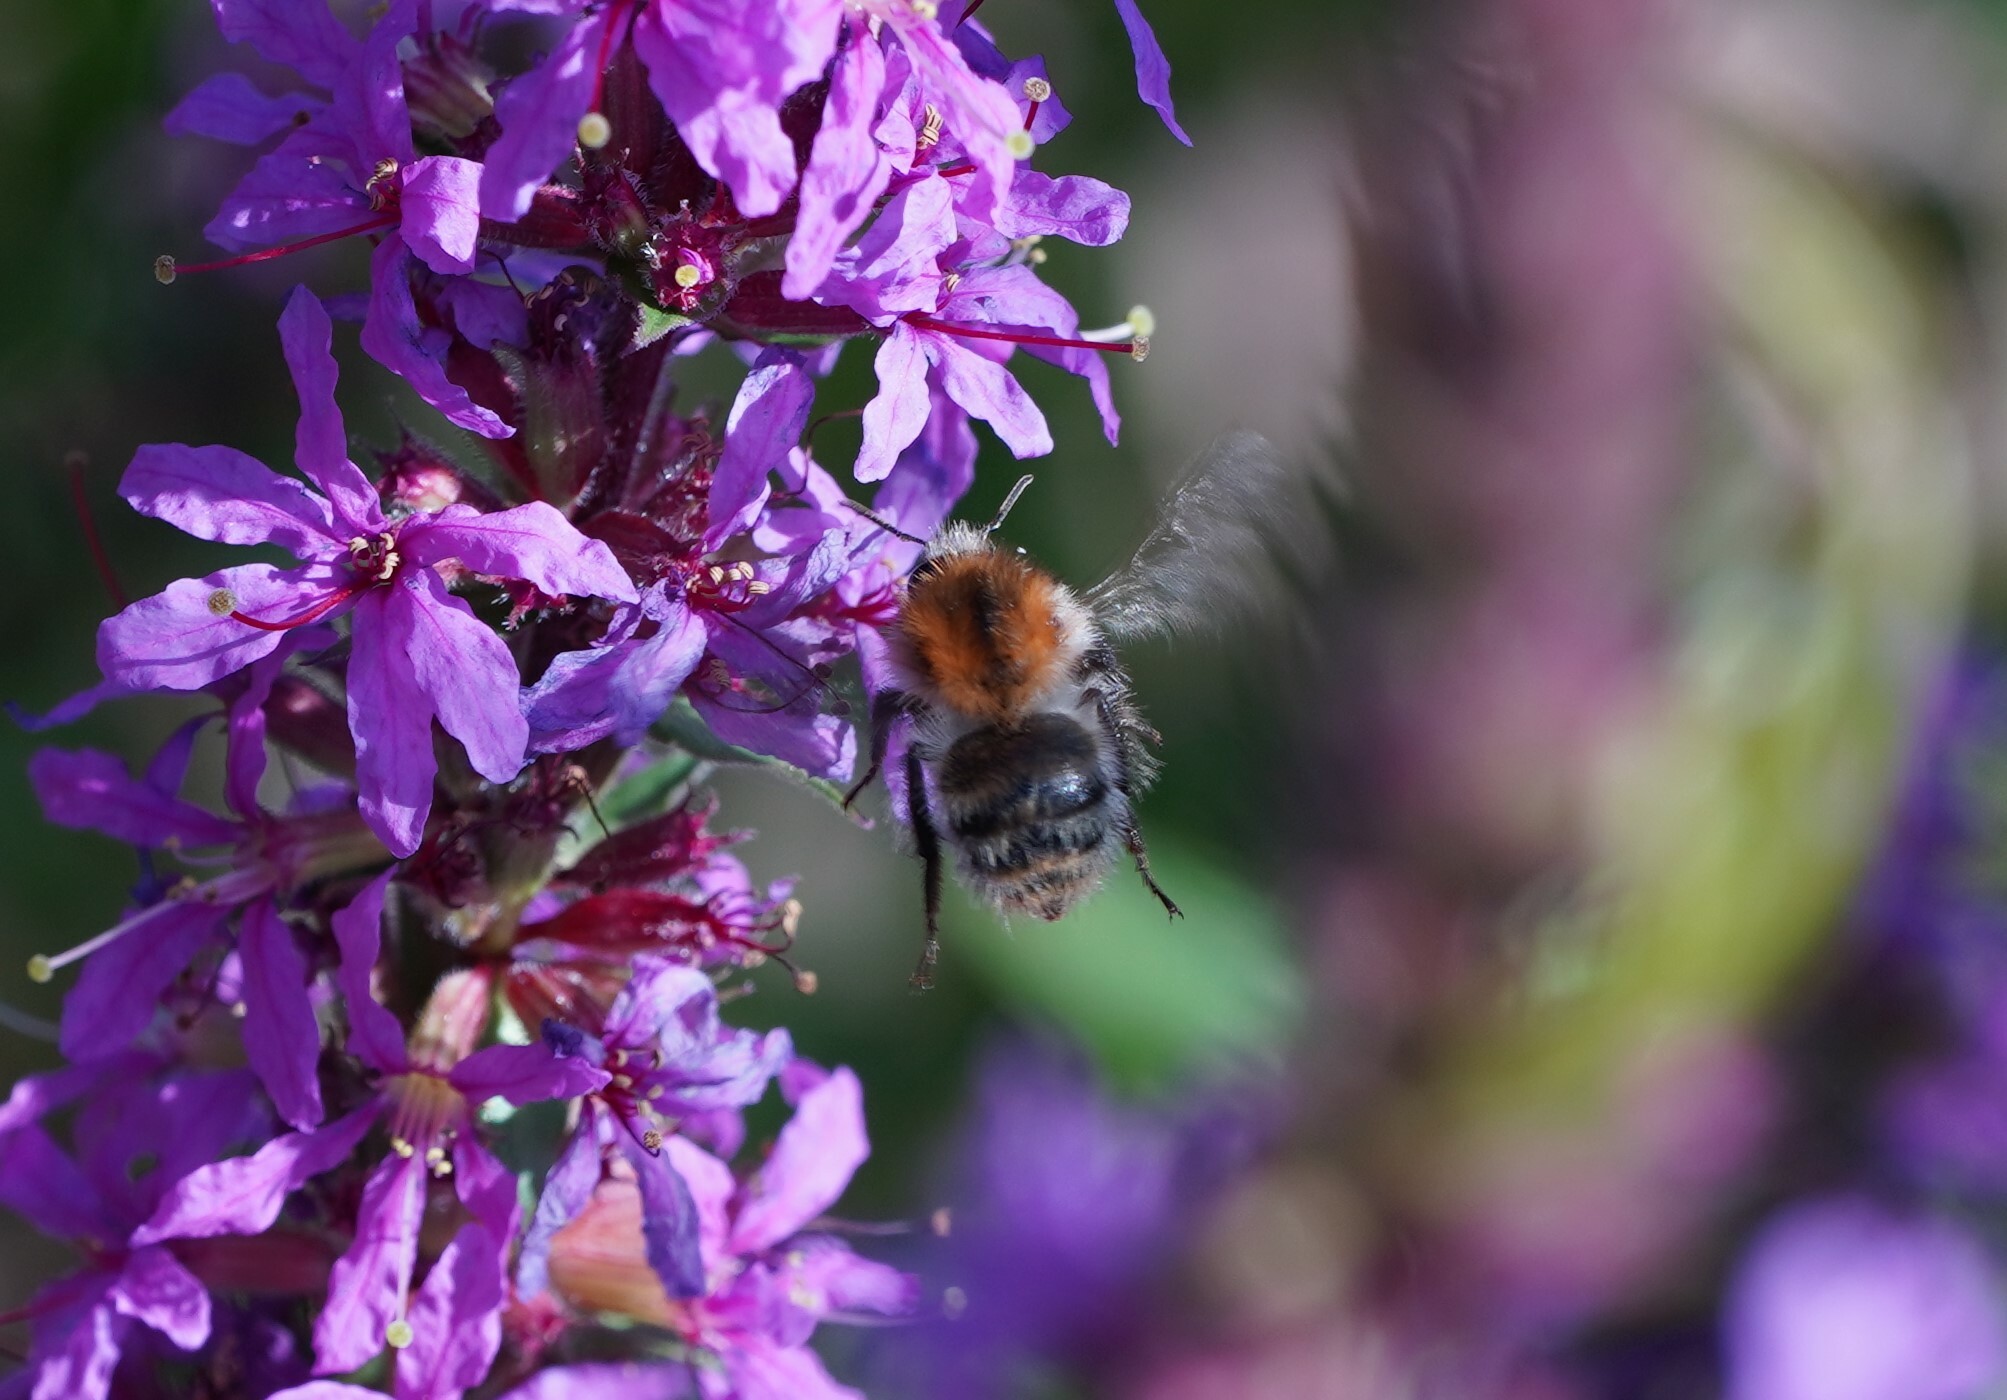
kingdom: Animalia
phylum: Arthropoda
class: Insecta
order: Hymenoptera
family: Apidae
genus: Bombus
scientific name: Bombus pascuorum
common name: Common carder bee
